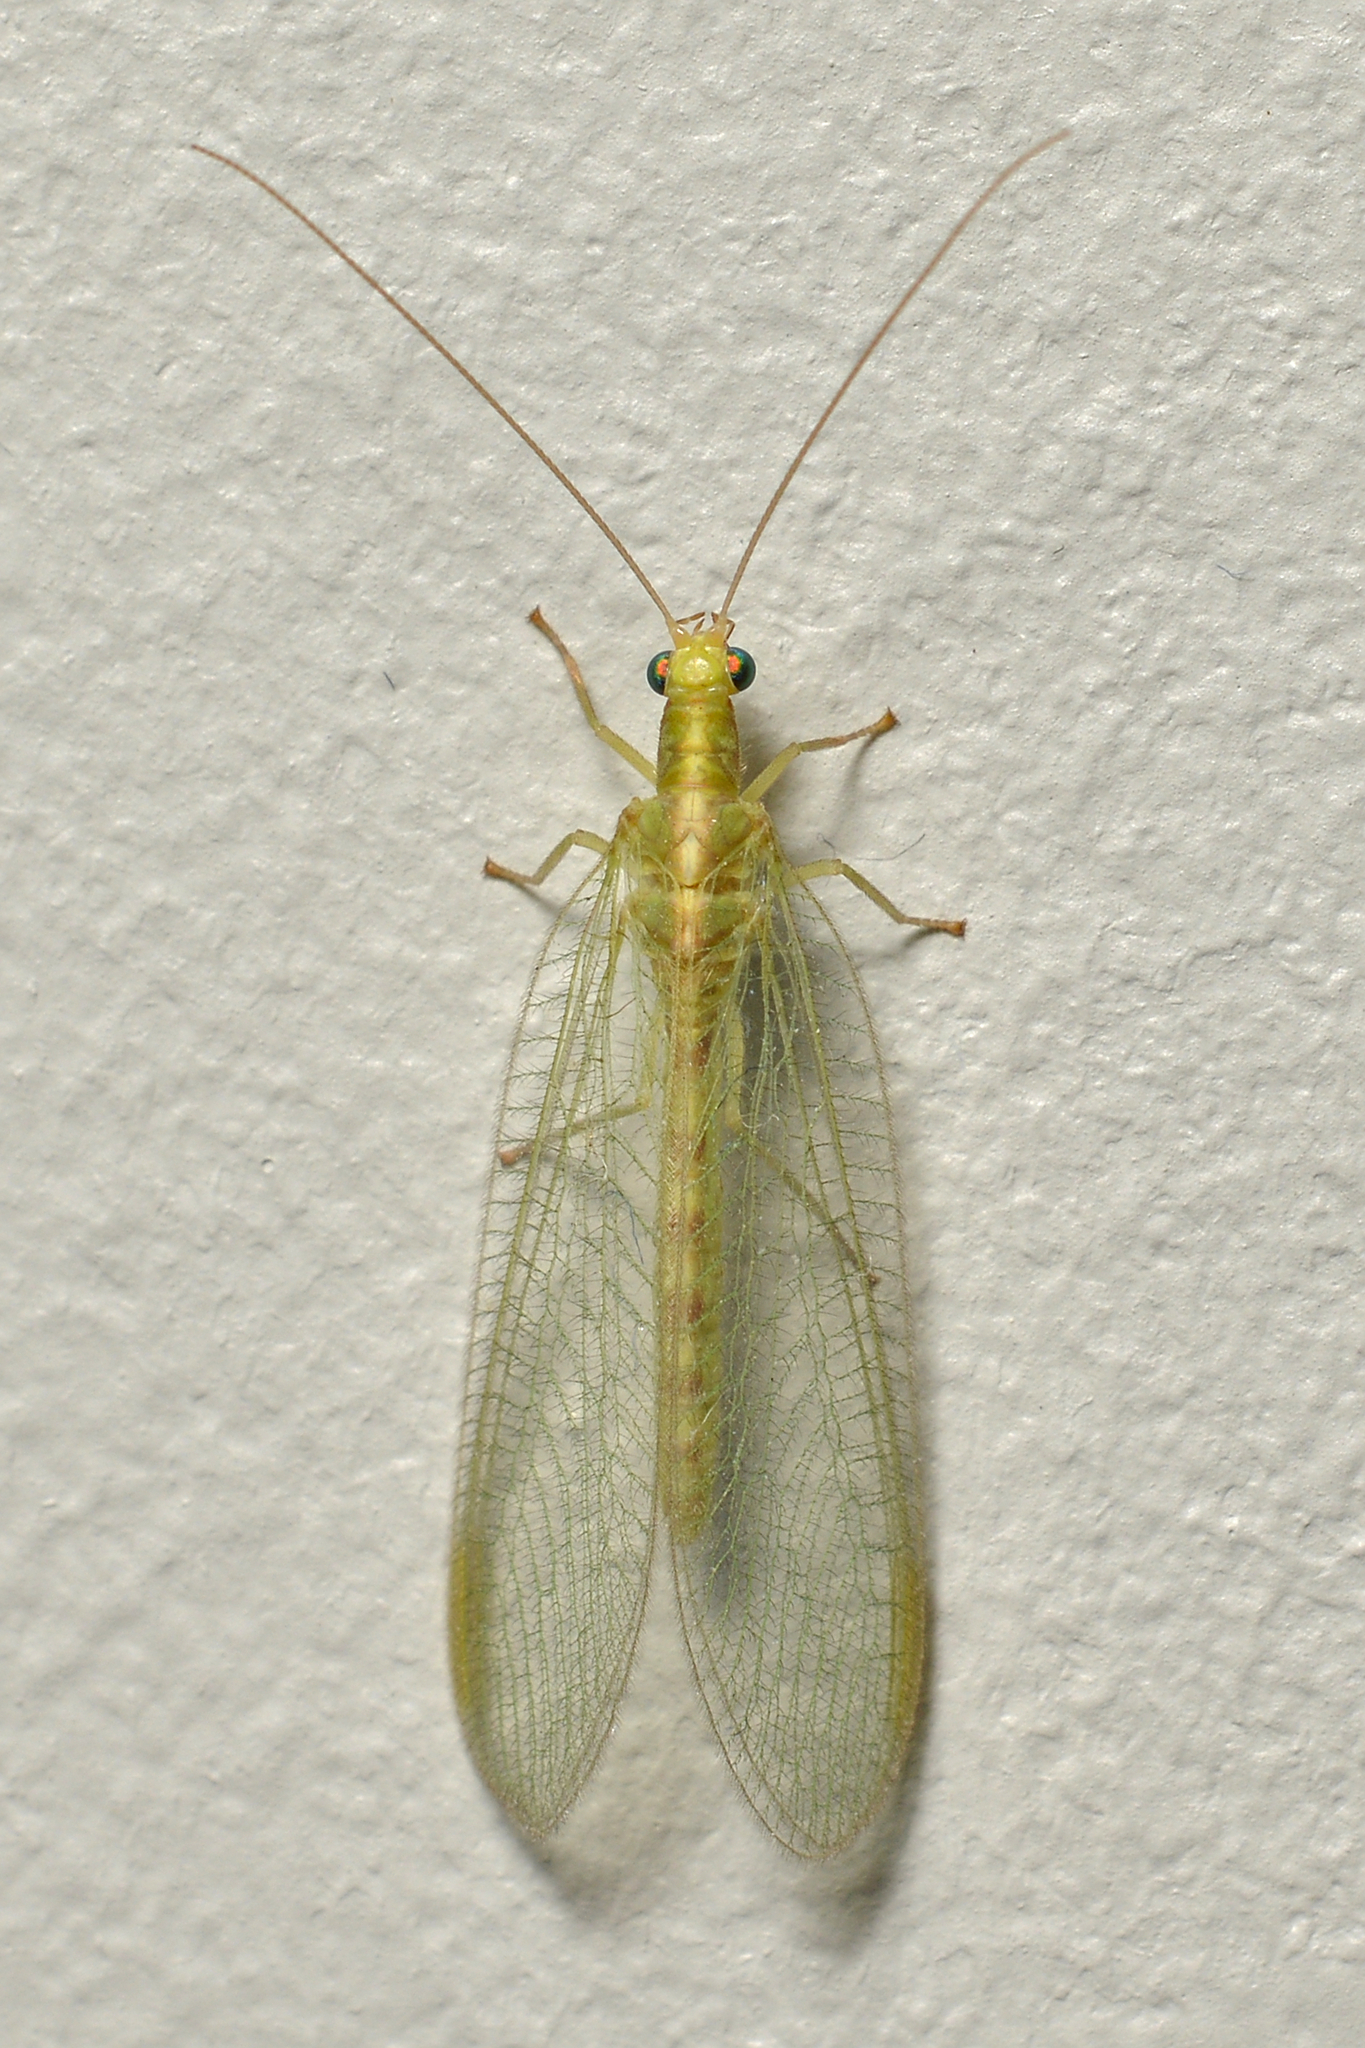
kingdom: Animalia
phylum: Arthropoda
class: Insecta
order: Neuroptera
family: Chrysopidae
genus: Chrysoperla
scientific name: Chrysoperla
